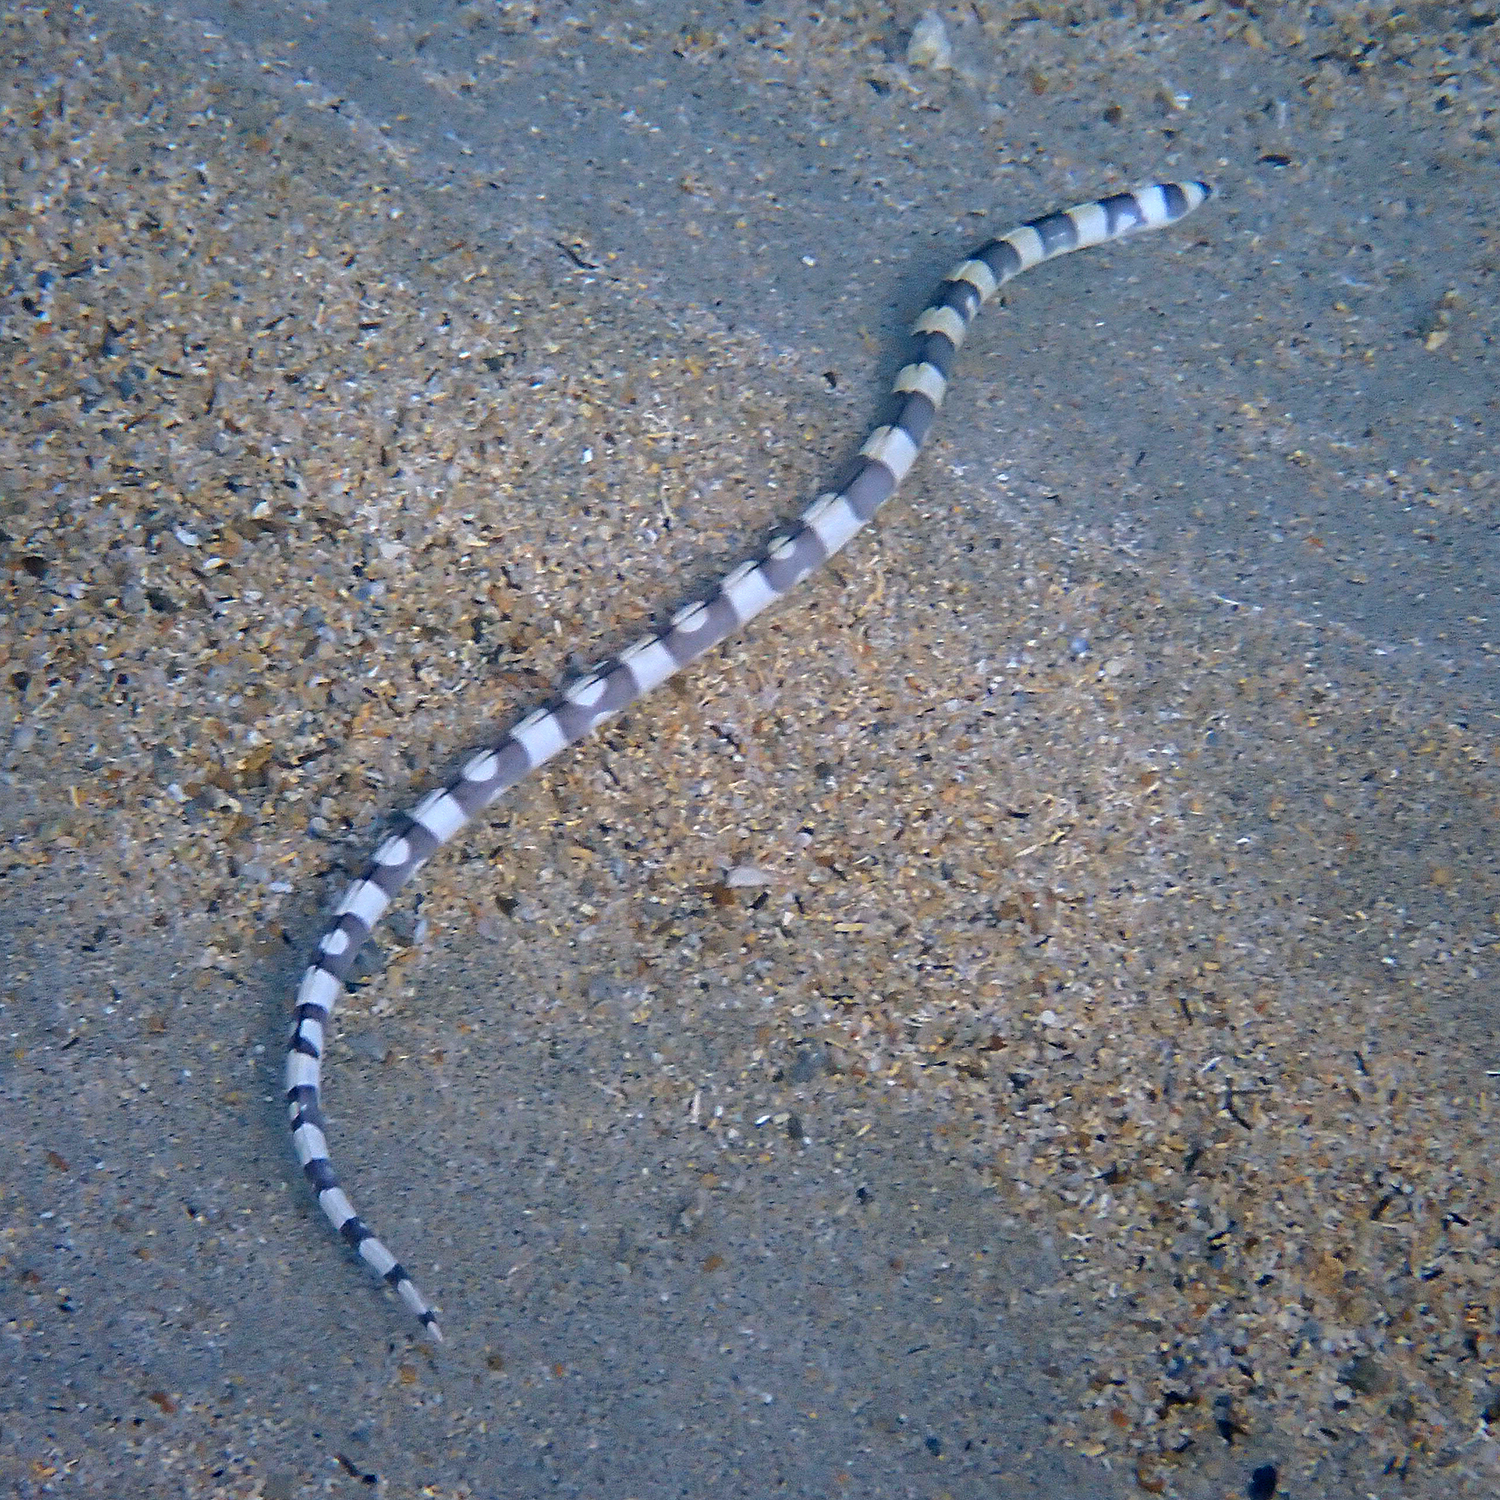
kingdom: Animalia
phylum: Chordata
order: Anguilliformes
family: Ophichthidae
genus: Leiuranus
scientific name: Leiuranus versicolor
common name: Convict snake eel
